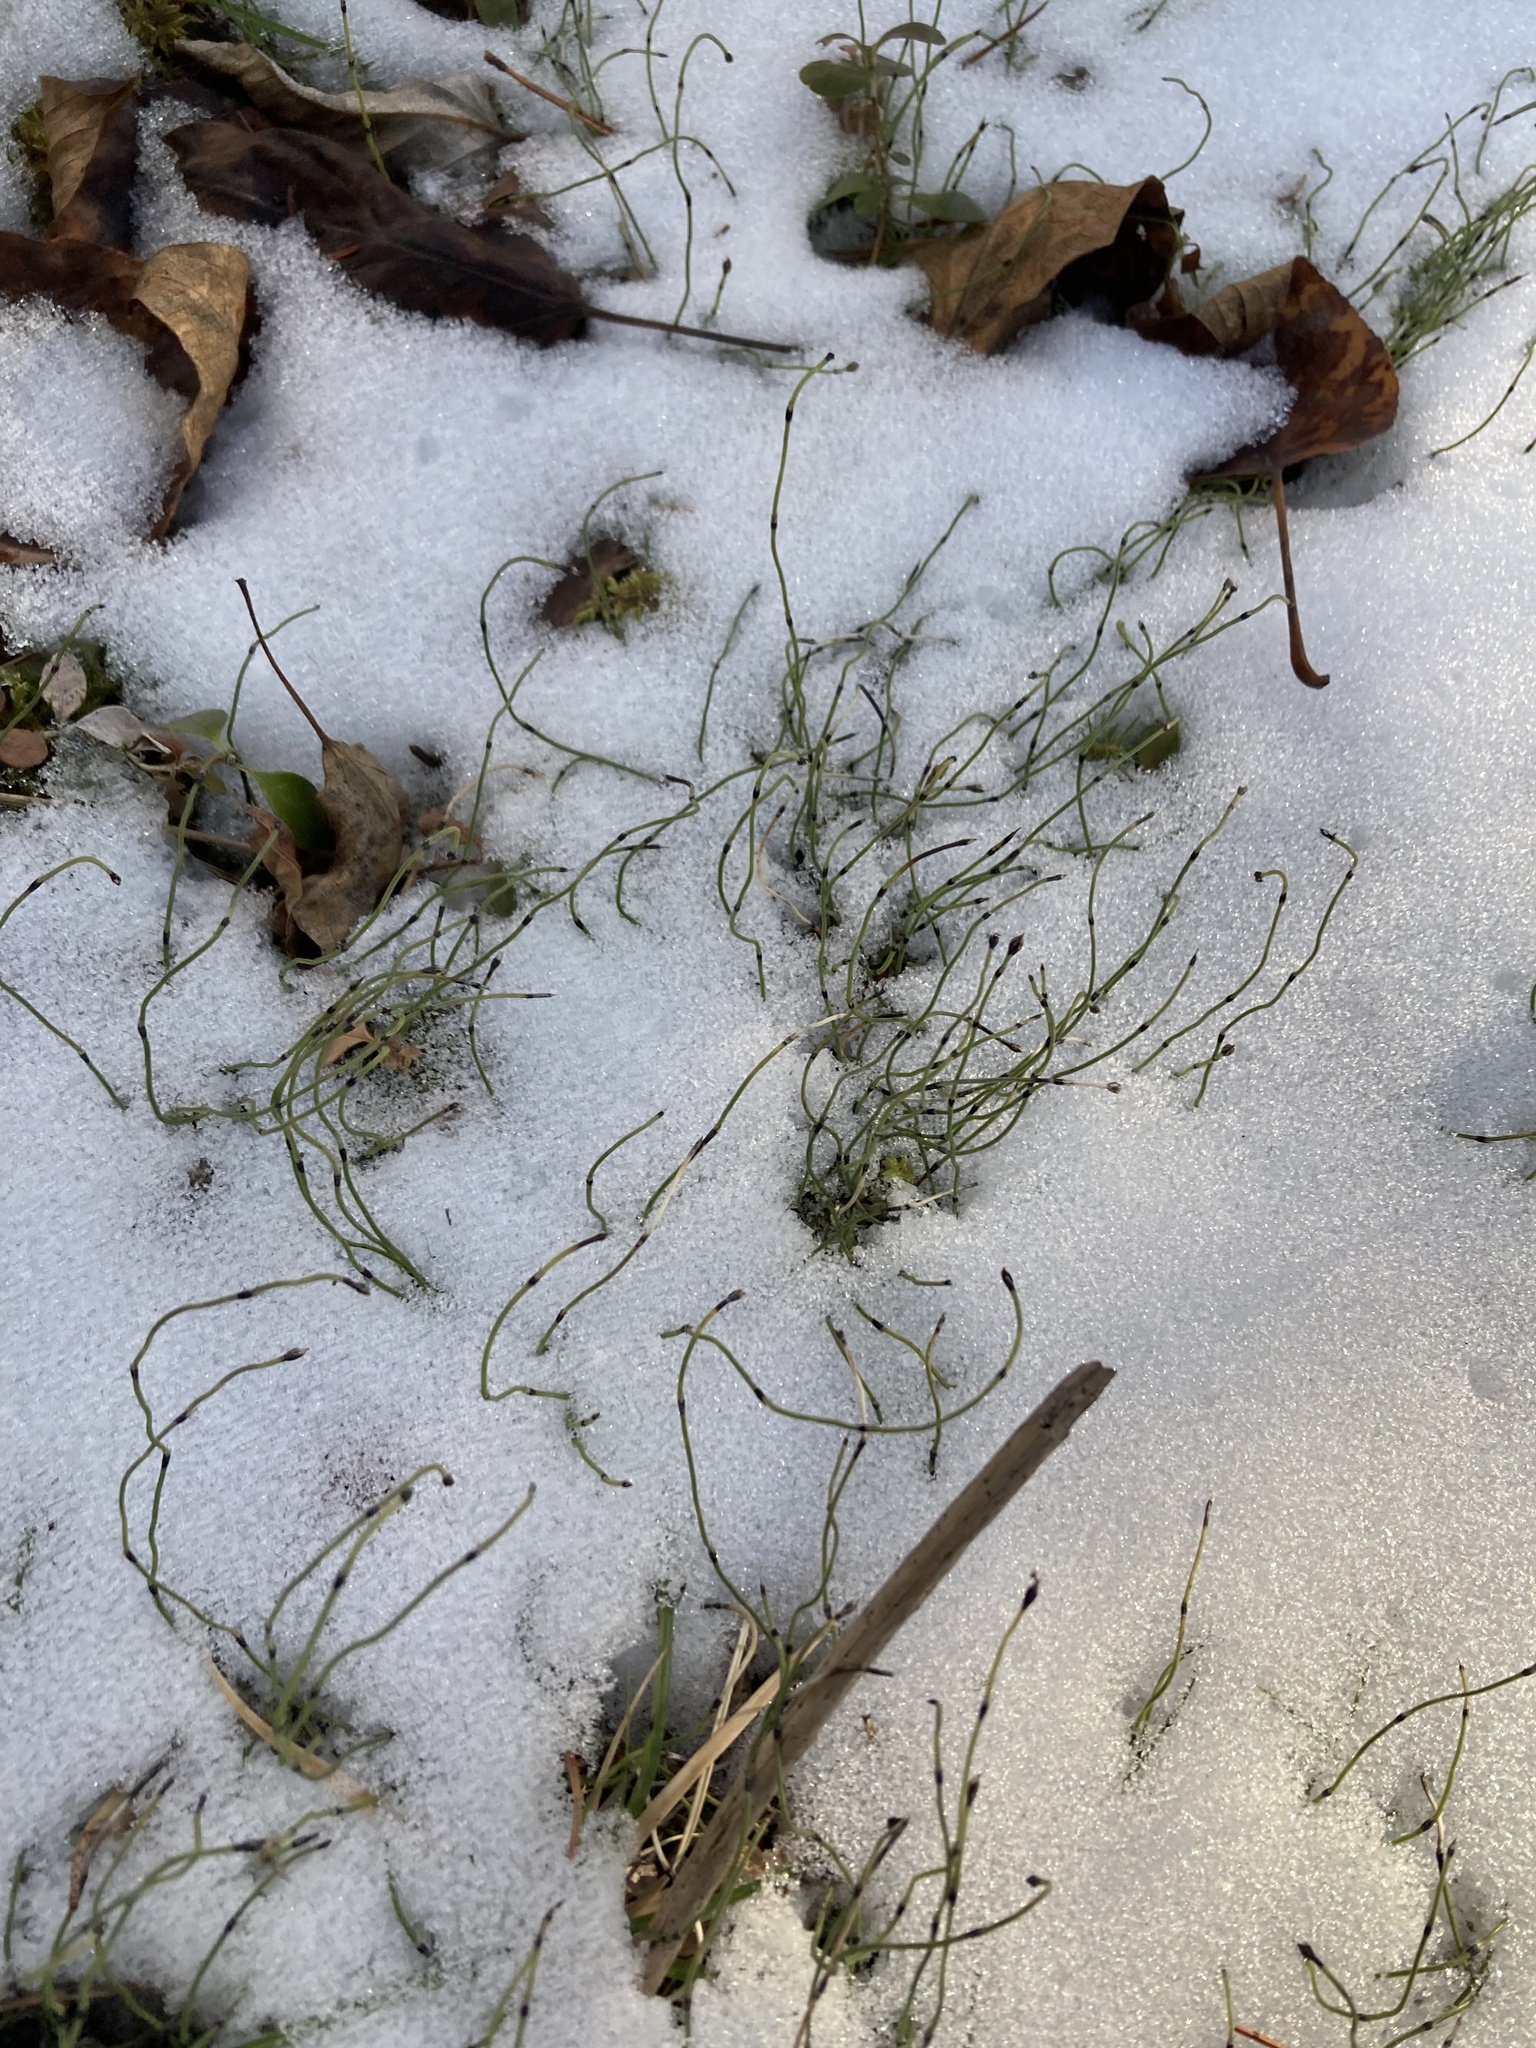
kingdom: Plantae
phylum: Tracheophyta
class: Polypodiopsida
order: Equisetales
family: Equisetaceae
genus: Equisetum
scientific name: Equisetum scirpoides
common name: Delicate horsetail
